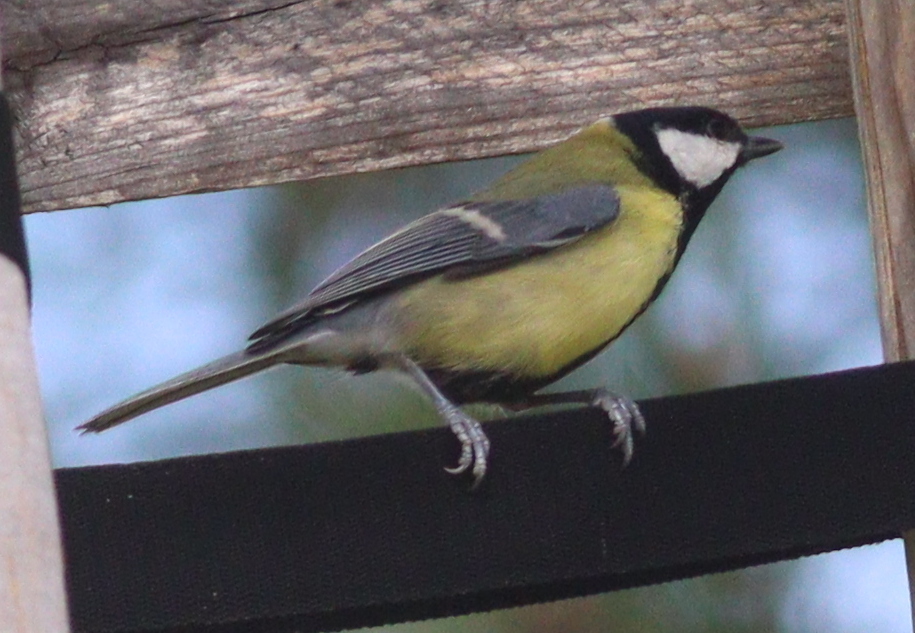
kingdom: Animalia
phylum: Chordata
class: Aves
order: Passeriformes
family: Paridae
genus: Parus
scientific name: Parus major
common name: Great tit
